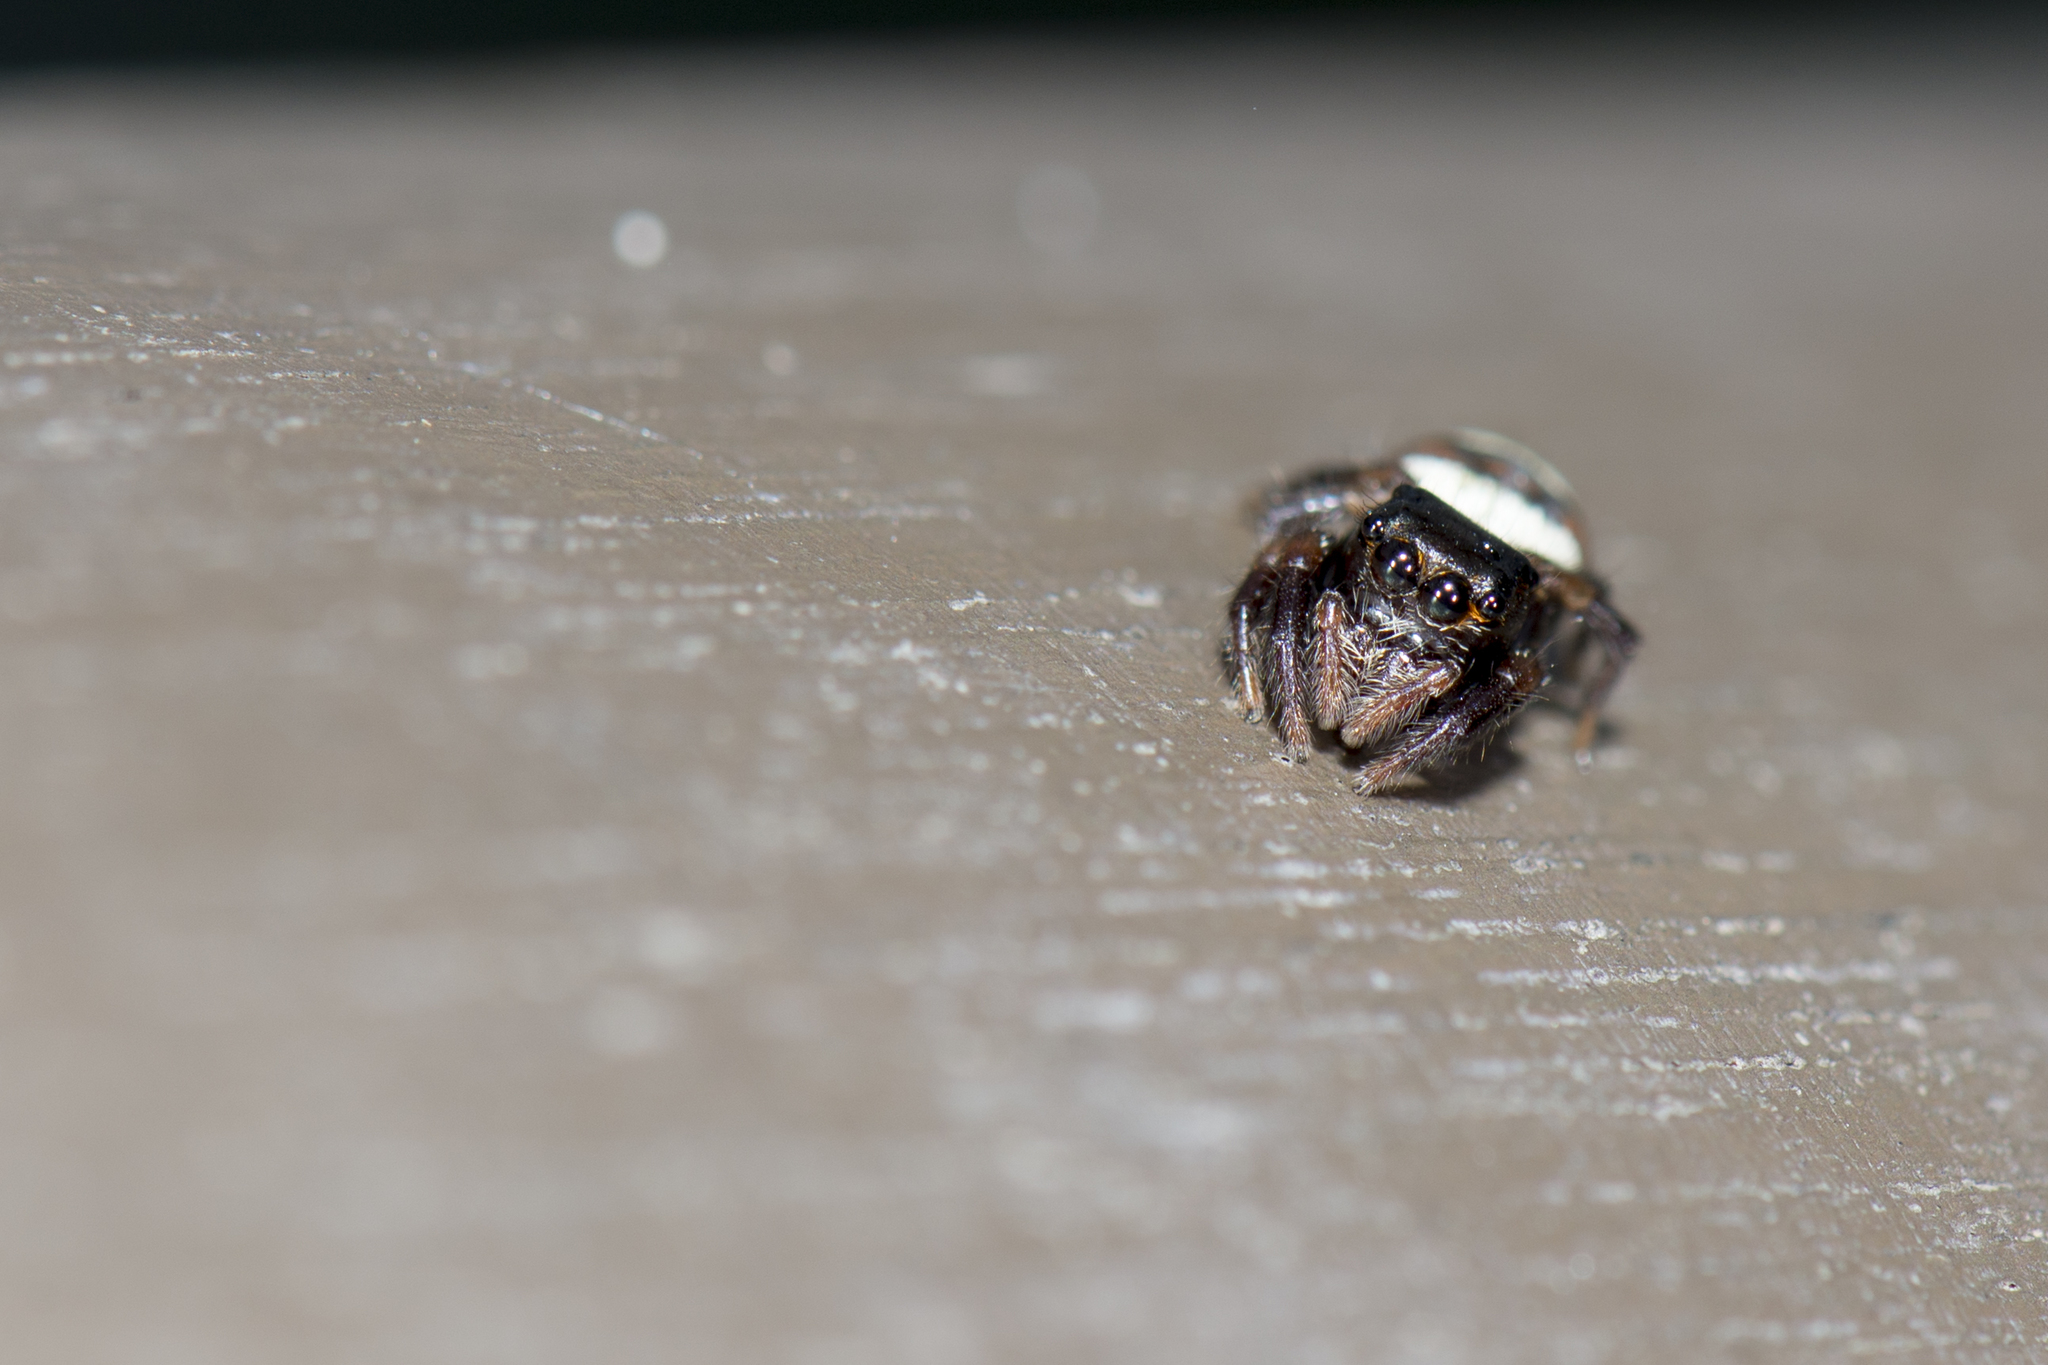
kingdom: Animalia
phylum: Arthropoda
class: Arachnida
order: Araneae
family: Salticidae
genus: Ptocasius
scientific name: Ptocasius strupifer
